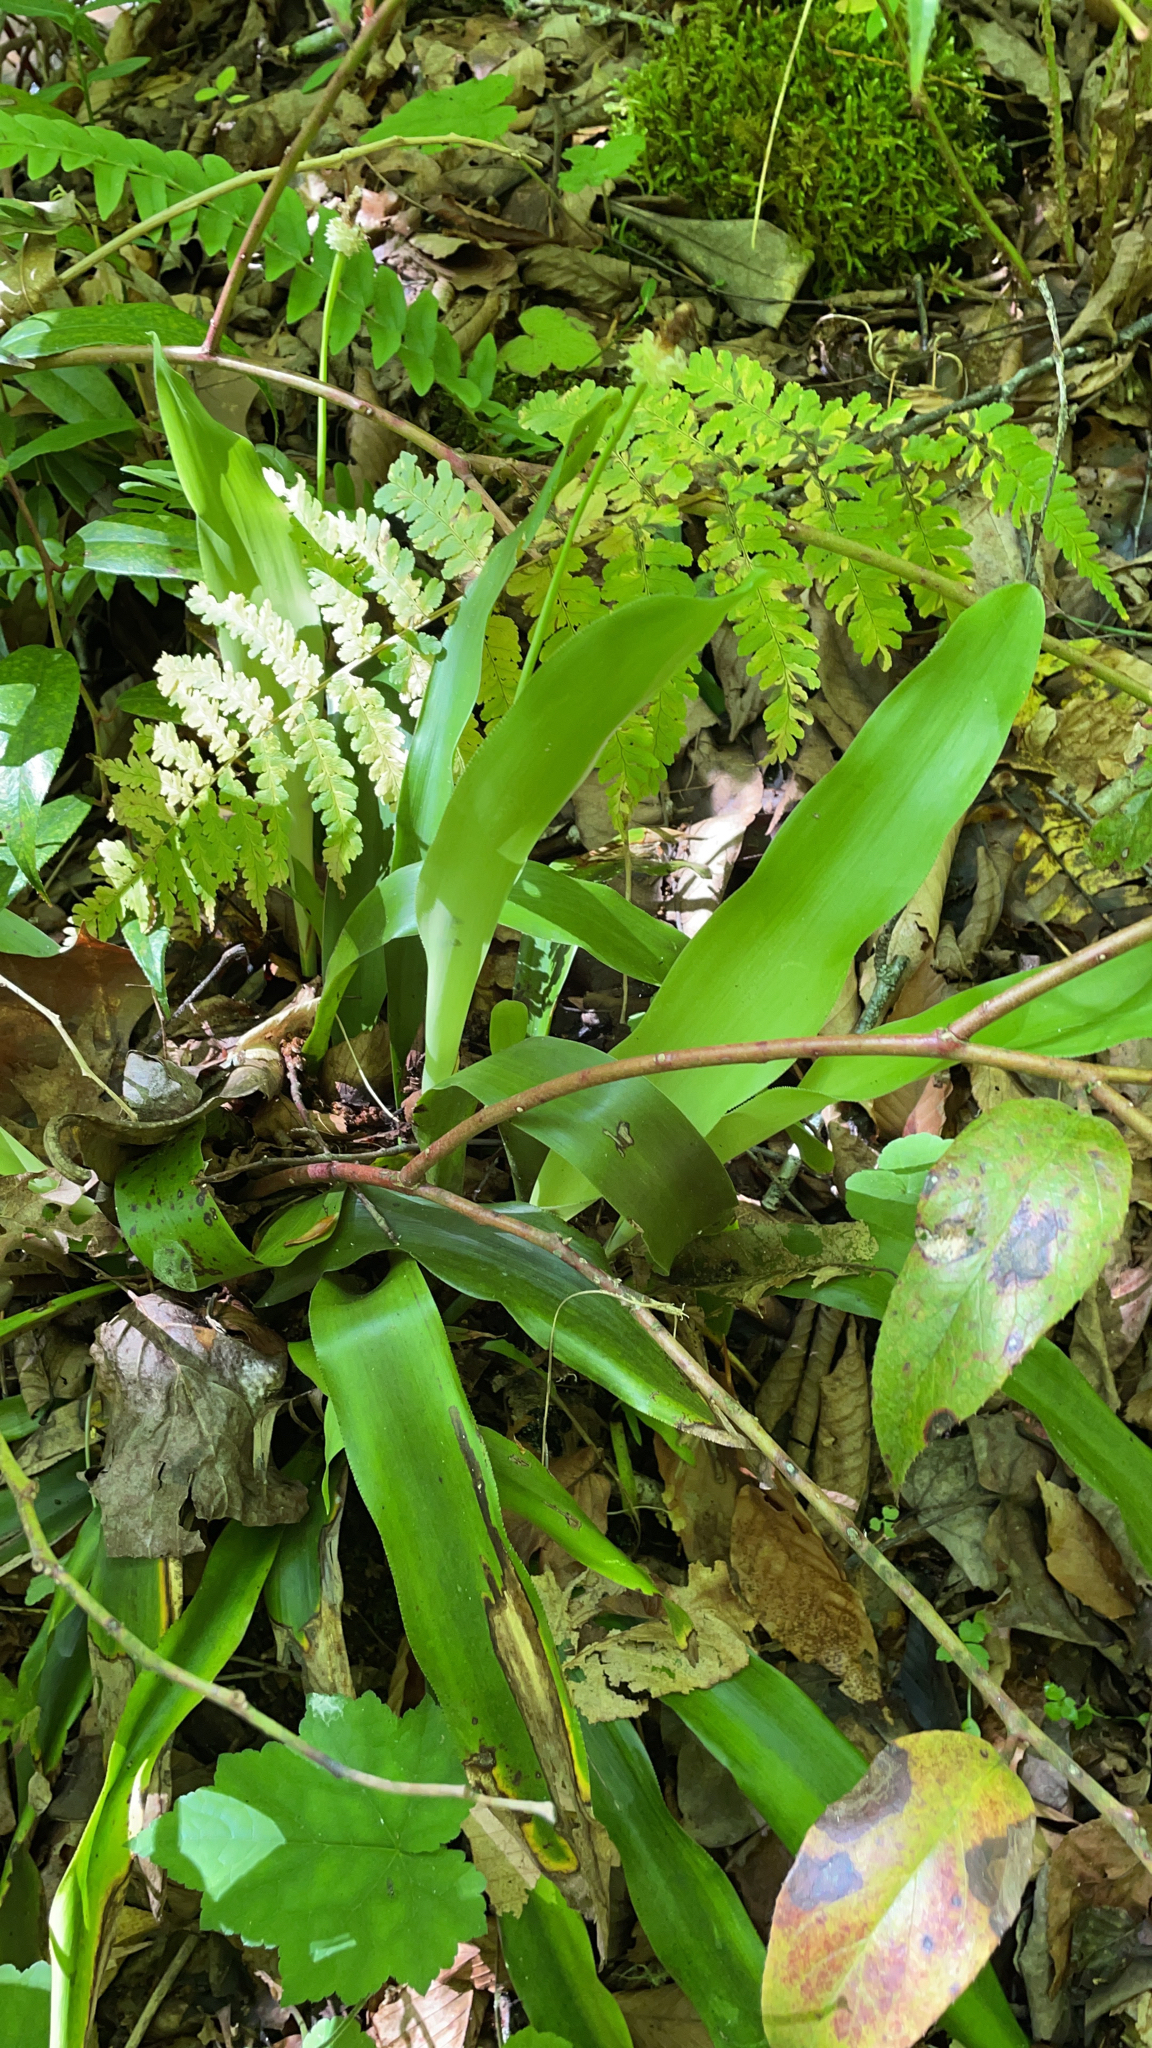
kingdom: Plantae
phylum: Tracheophyta
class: Liliopsida
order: Poales
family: Cyperaceae
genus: Carex
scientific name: Carex fraseriana
